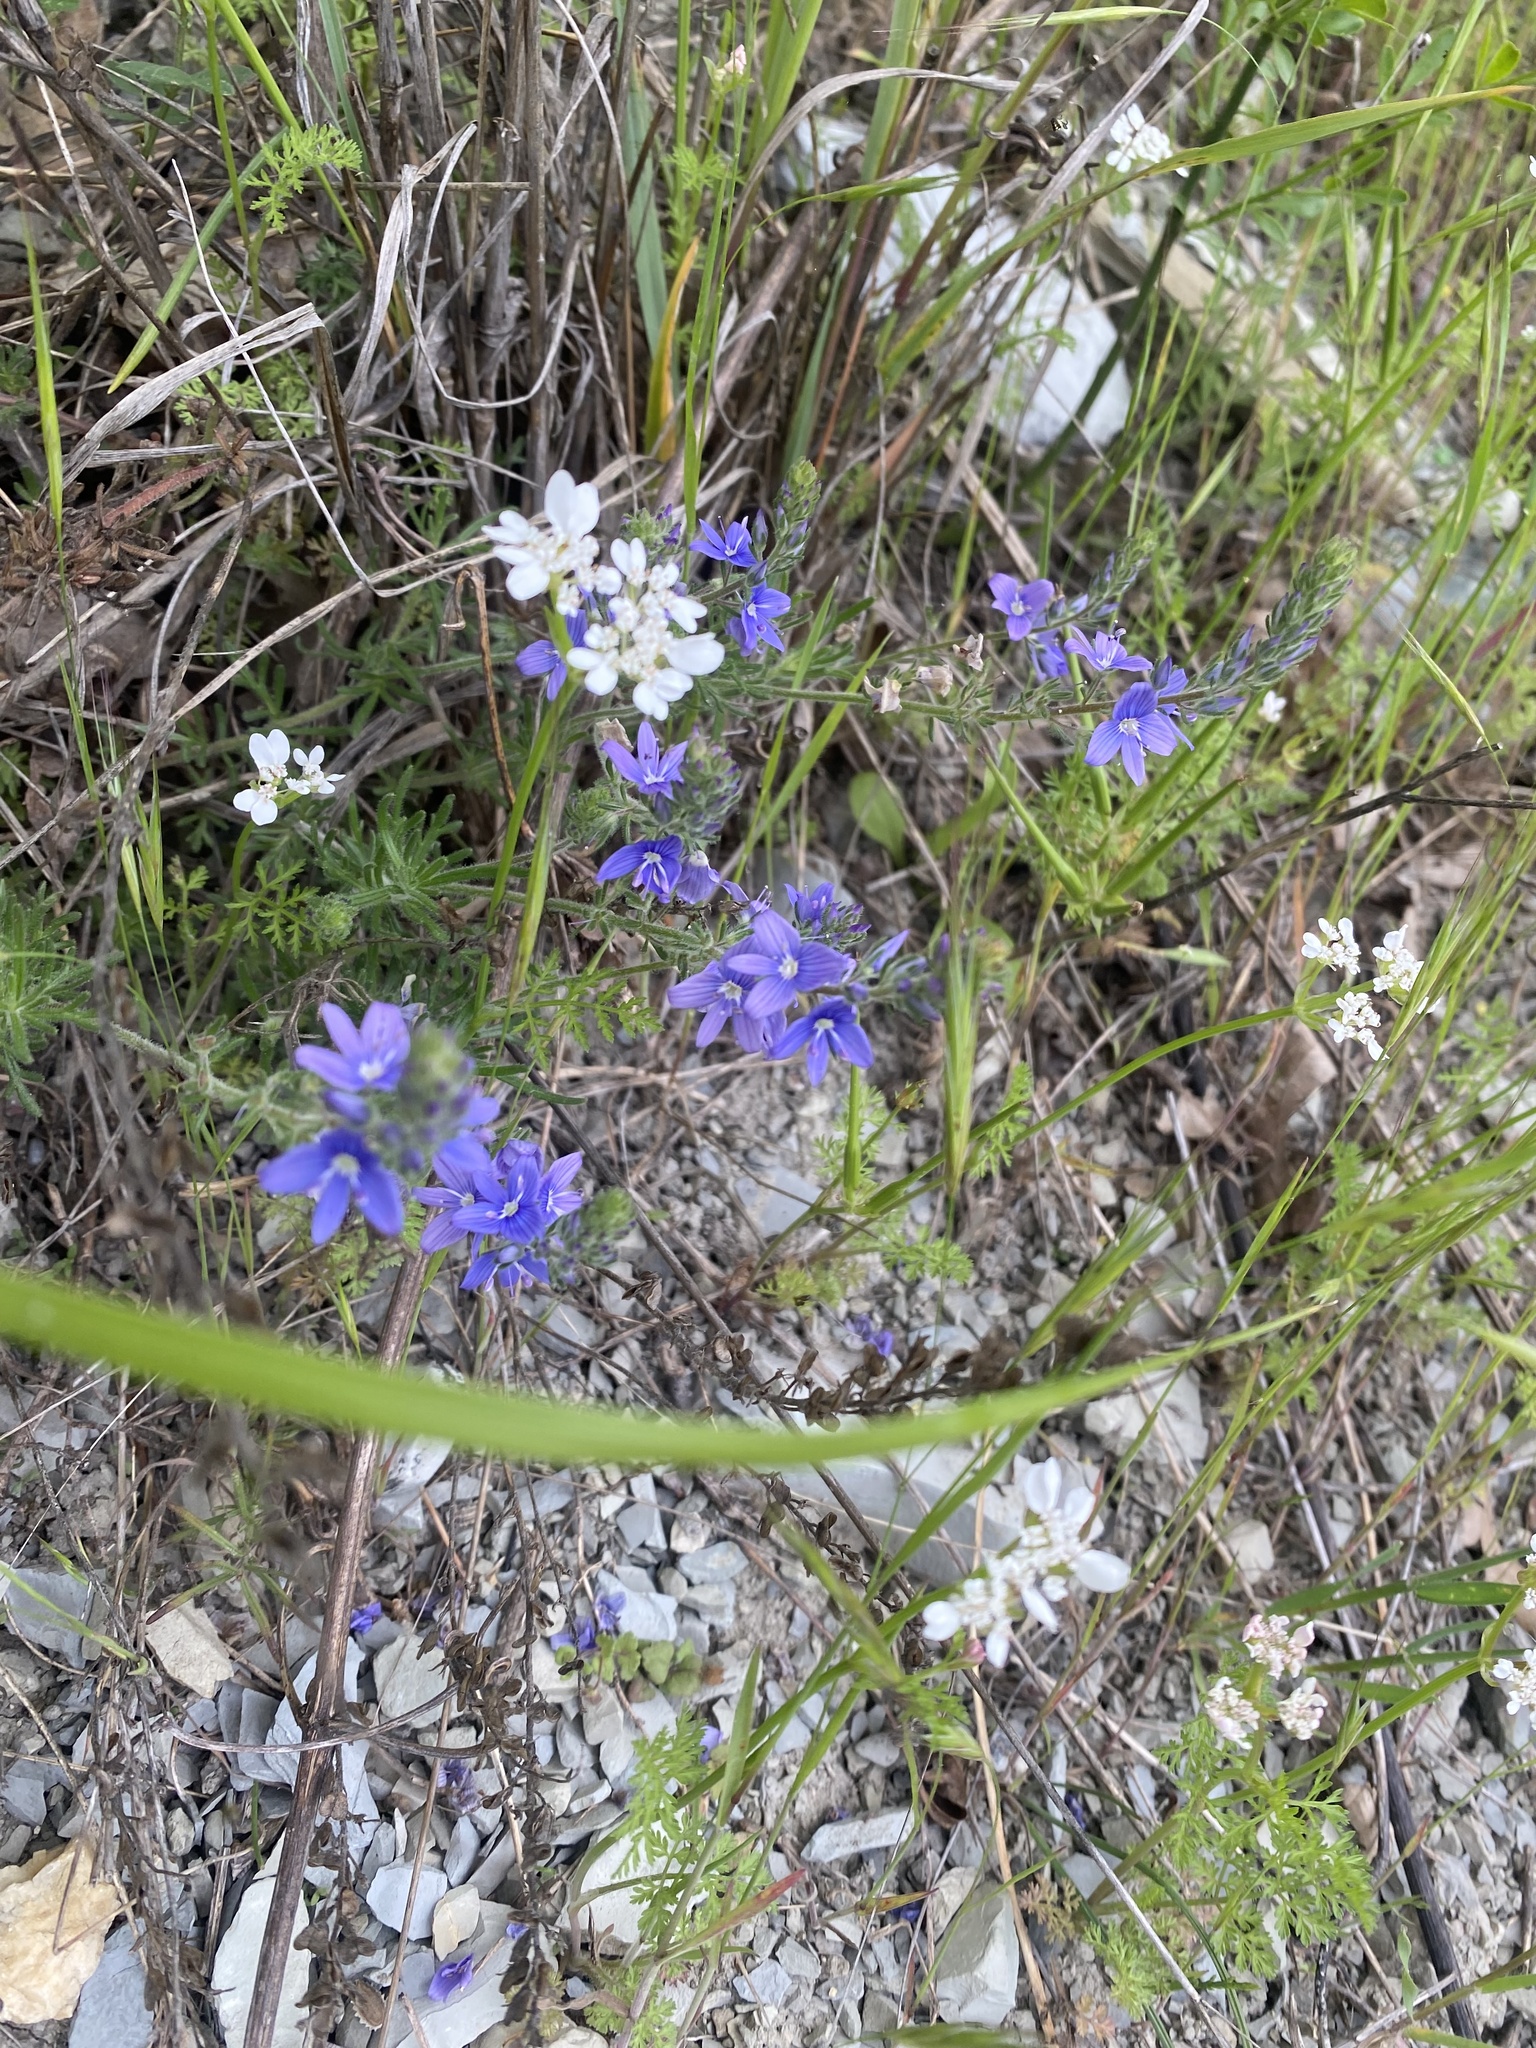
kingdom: Plantae
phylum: Tracheophyta
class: Magnoliopsida
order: Boraginales
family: Boraginaceae
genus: Aegonychon
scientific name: Aegonychon purpurocaeruleum
